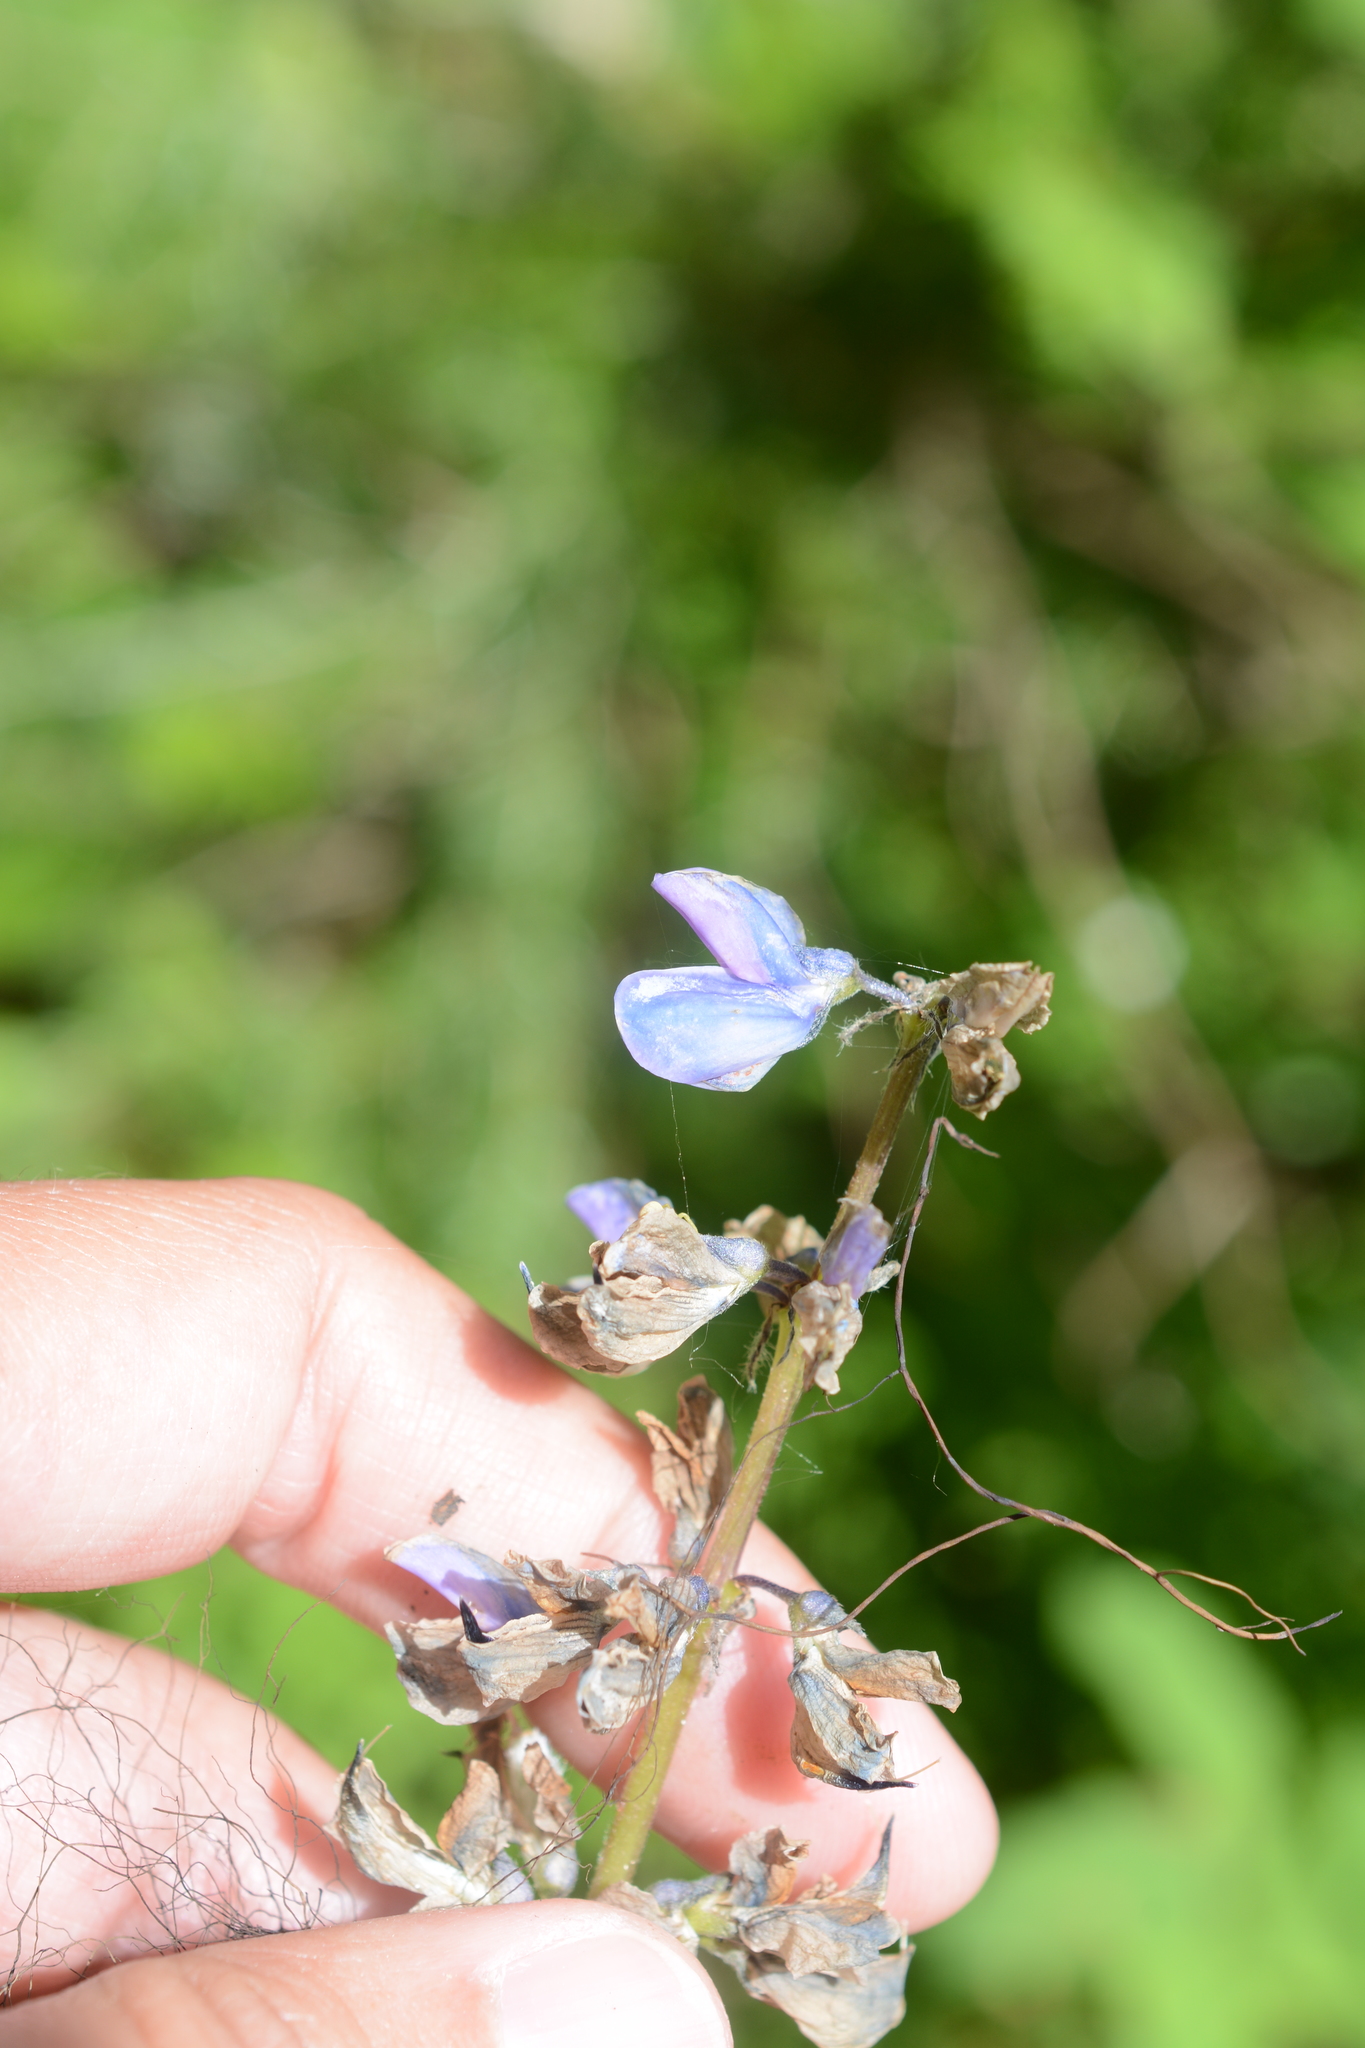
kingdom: Plantae
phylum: Tracheophyta
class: Magnoliopsida
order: Fabales
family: Fabaceae
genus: Lupinus
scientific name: Lupinus polyphyllus
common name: Garden lupin
